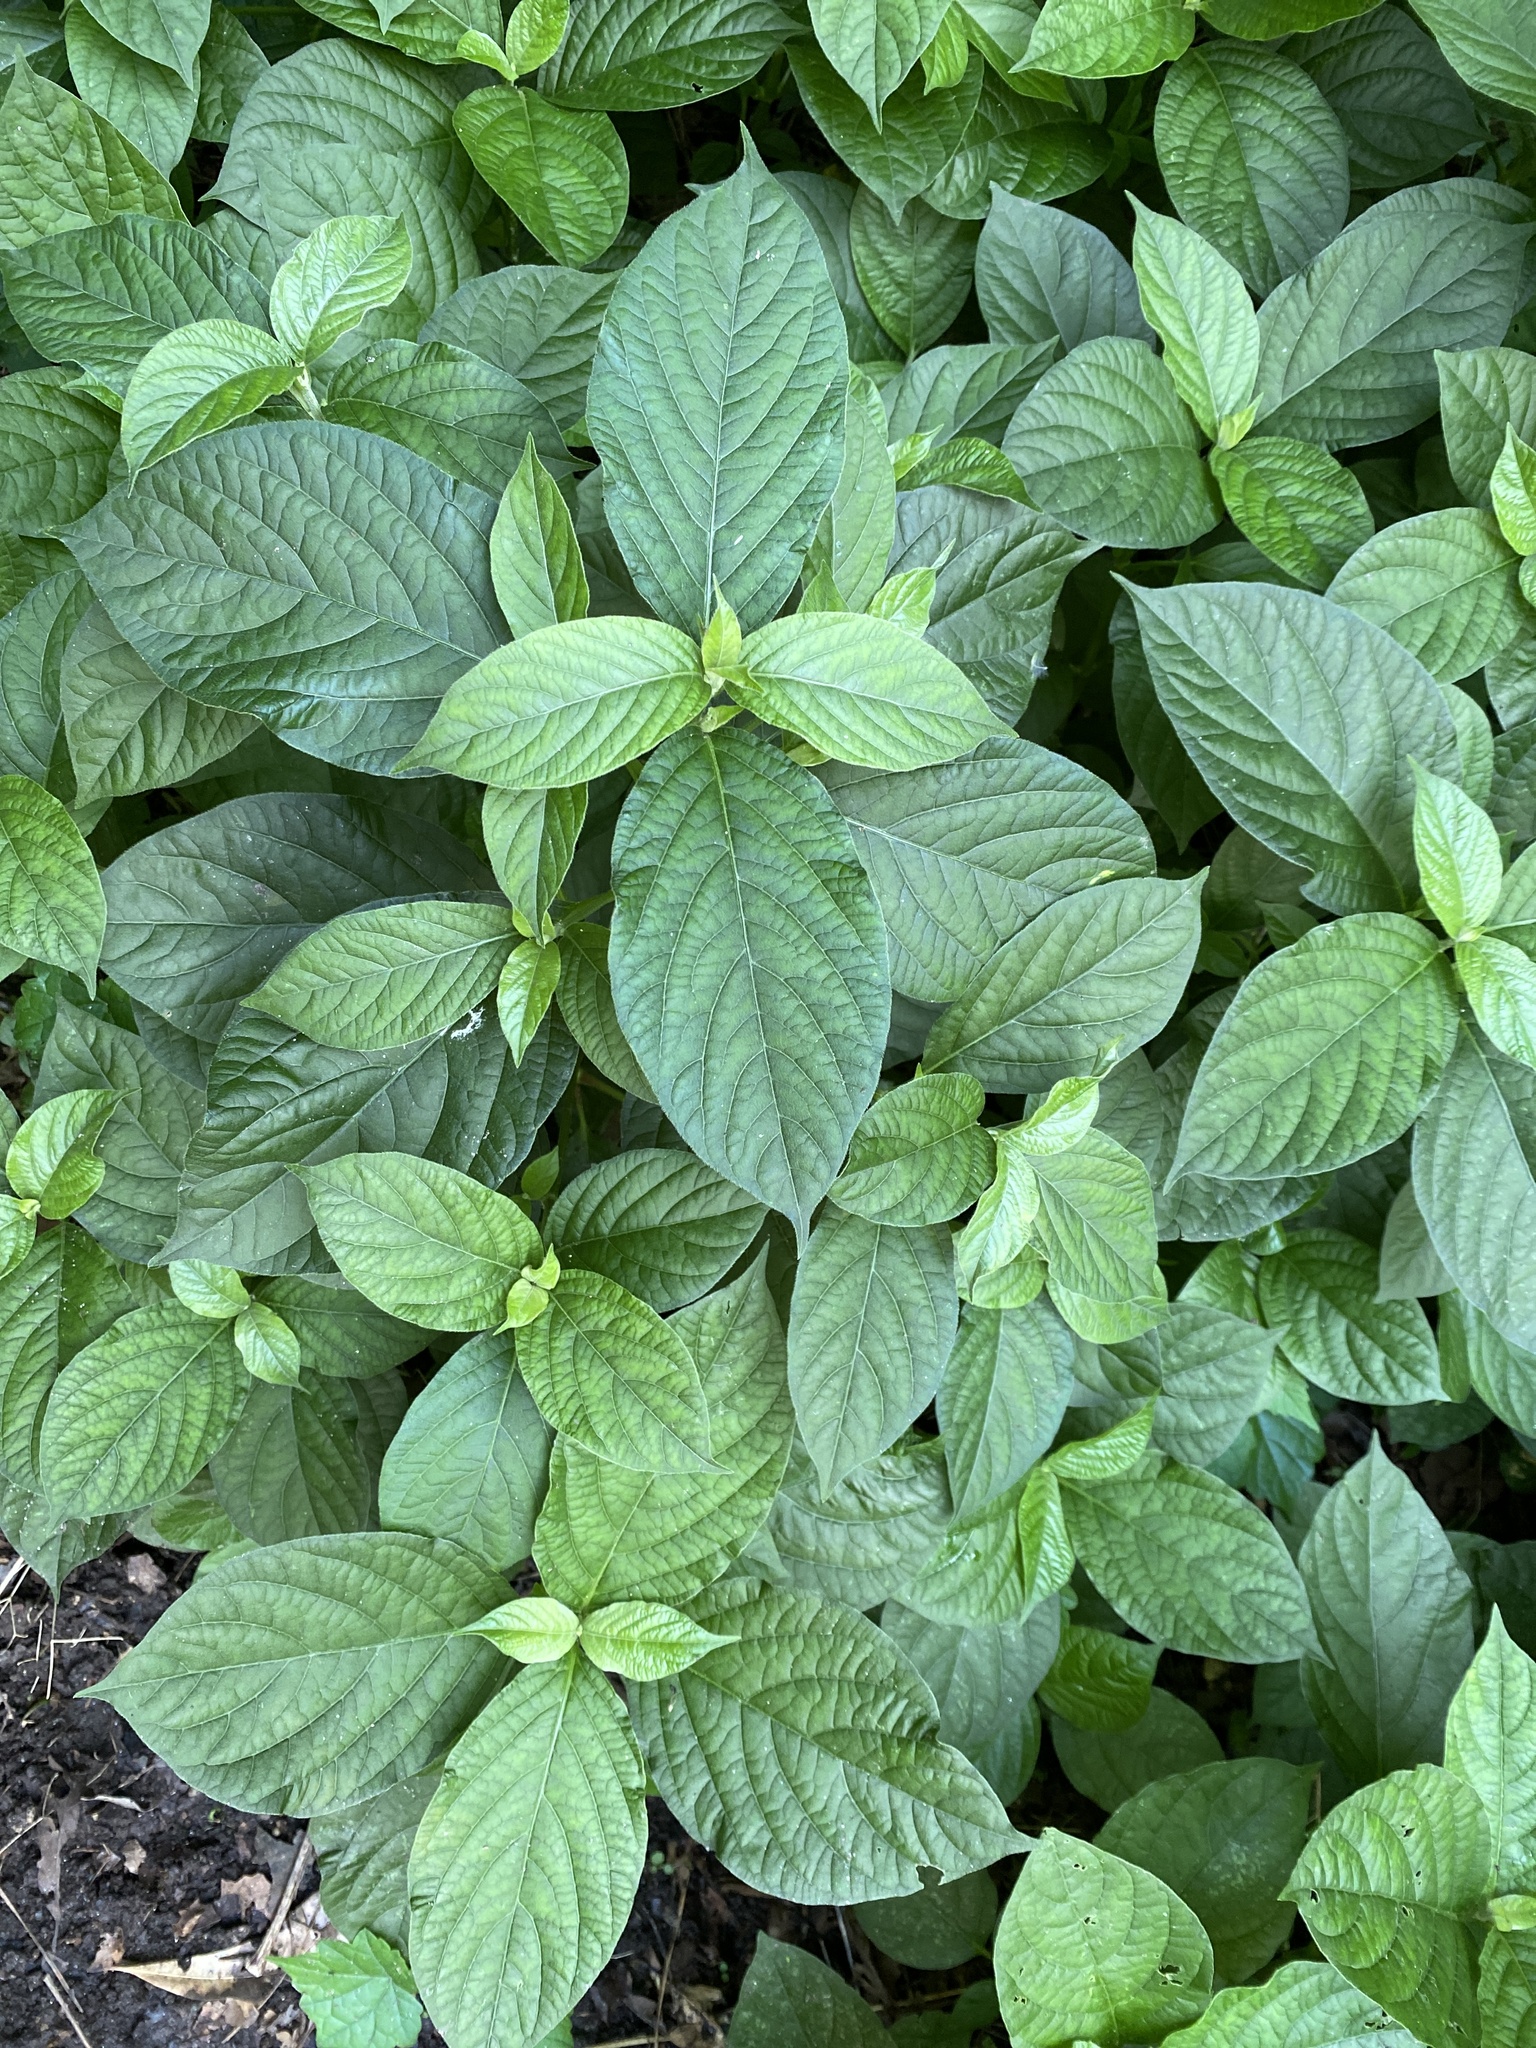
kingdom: Plantae
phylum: Tracheophyta
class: Magnoliopsida
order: Caryophyllales
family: Amaranthaceae
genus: Achyranthes
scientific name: Achyranthes bidentata
